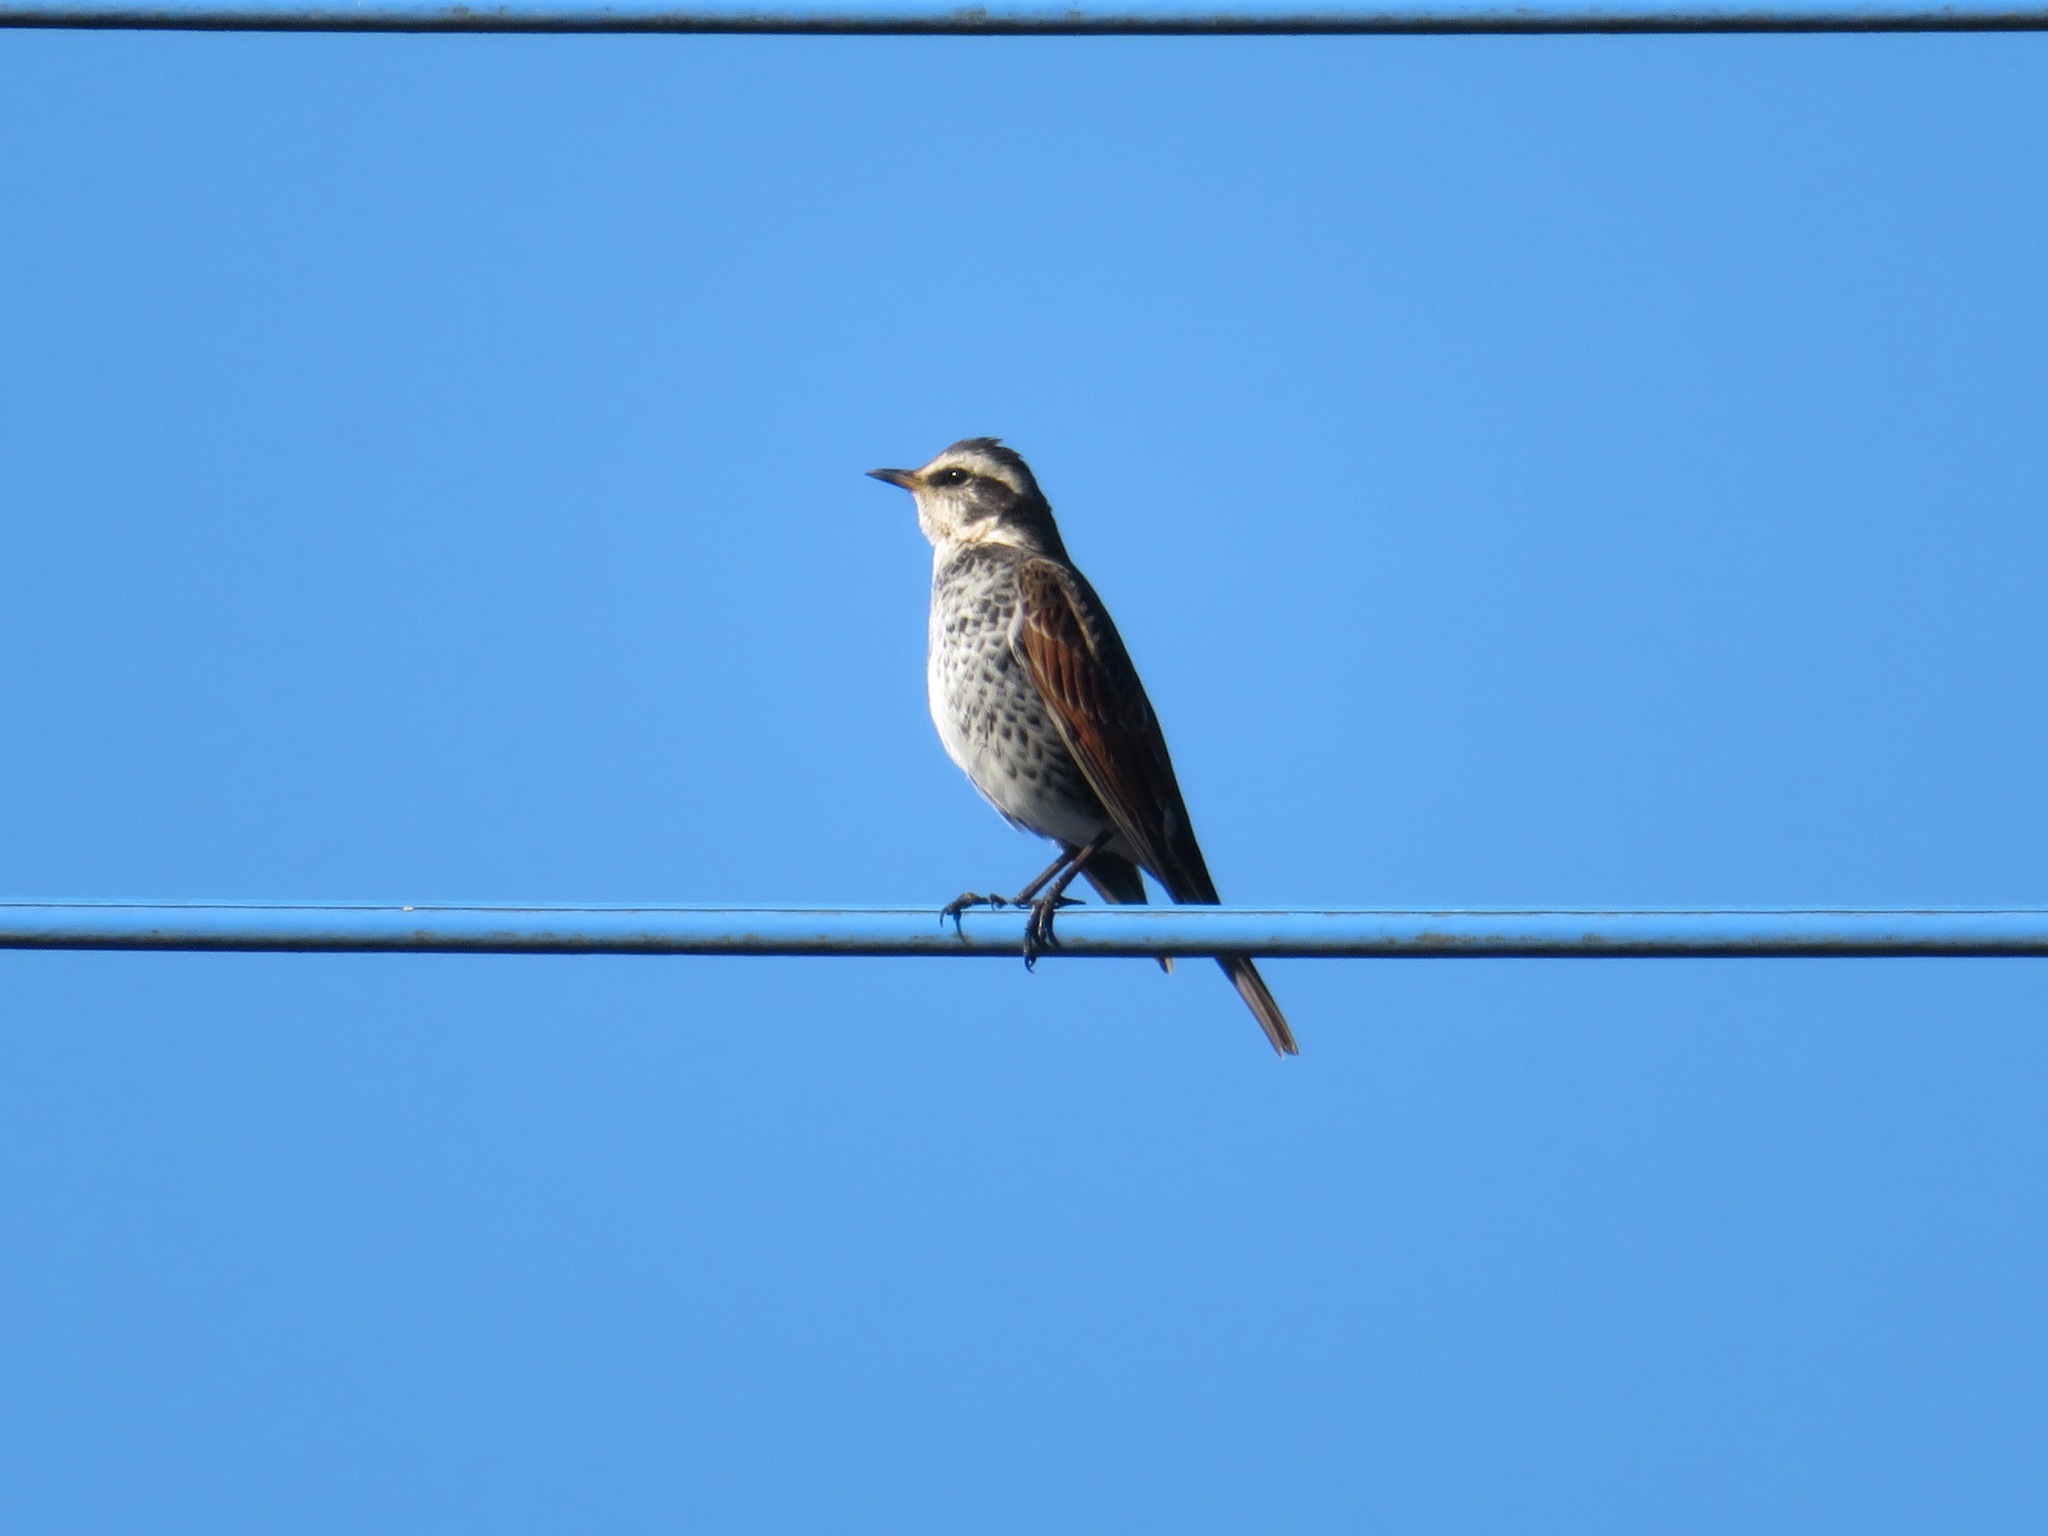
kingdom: Animalia
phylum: Chordata
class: Aves
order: Passeriformes
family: Turdidae
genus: Turdus
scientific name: Turdus eunomus
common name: Dusky thrush
